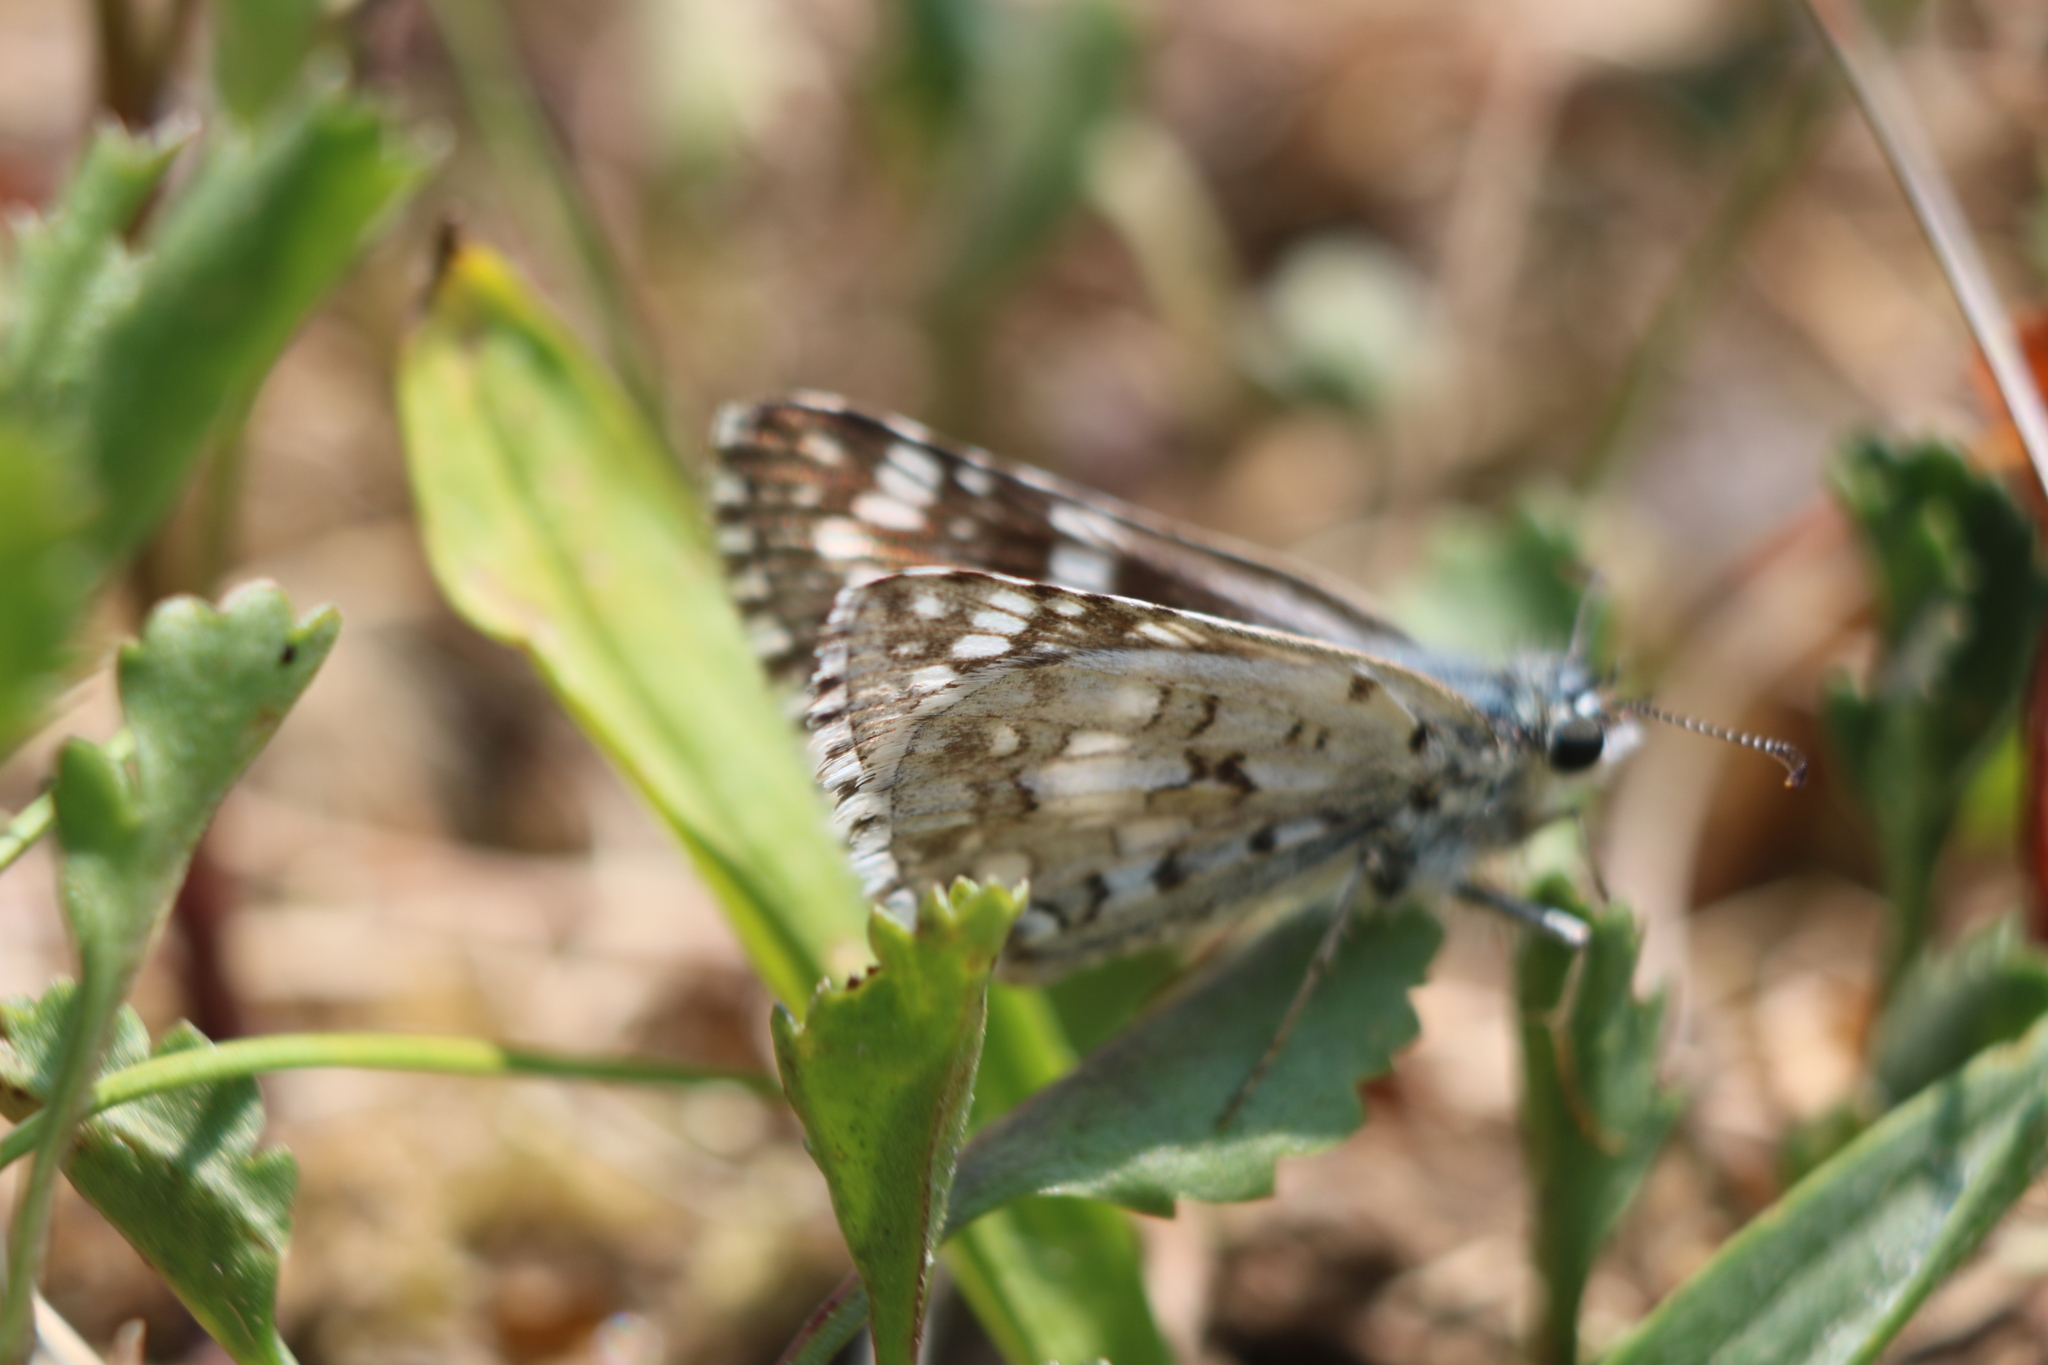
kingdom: Animalia
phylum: Arthropoda
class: Insecta
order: Lepidoptera
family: Hesperiidae
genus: Burnsius
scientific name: Burnsius communis
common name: Common checkered-skipper
